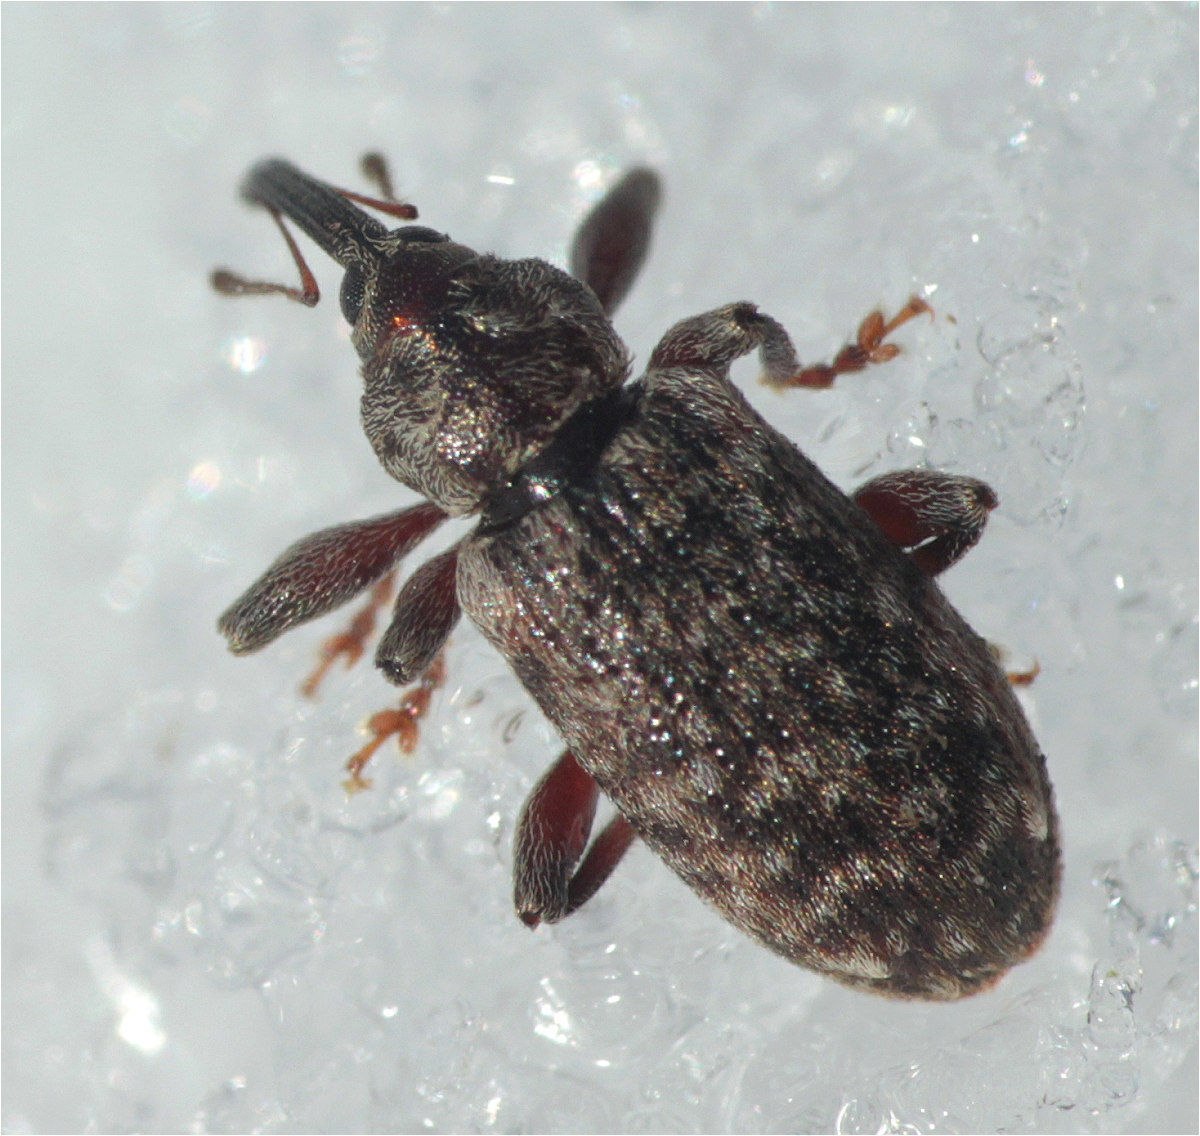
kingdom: Animalia
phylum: Arthropoda
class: Insecta
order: Coleoptera
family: Curculionidae
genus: Dorytomus
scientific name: Dorytomus dejeani
